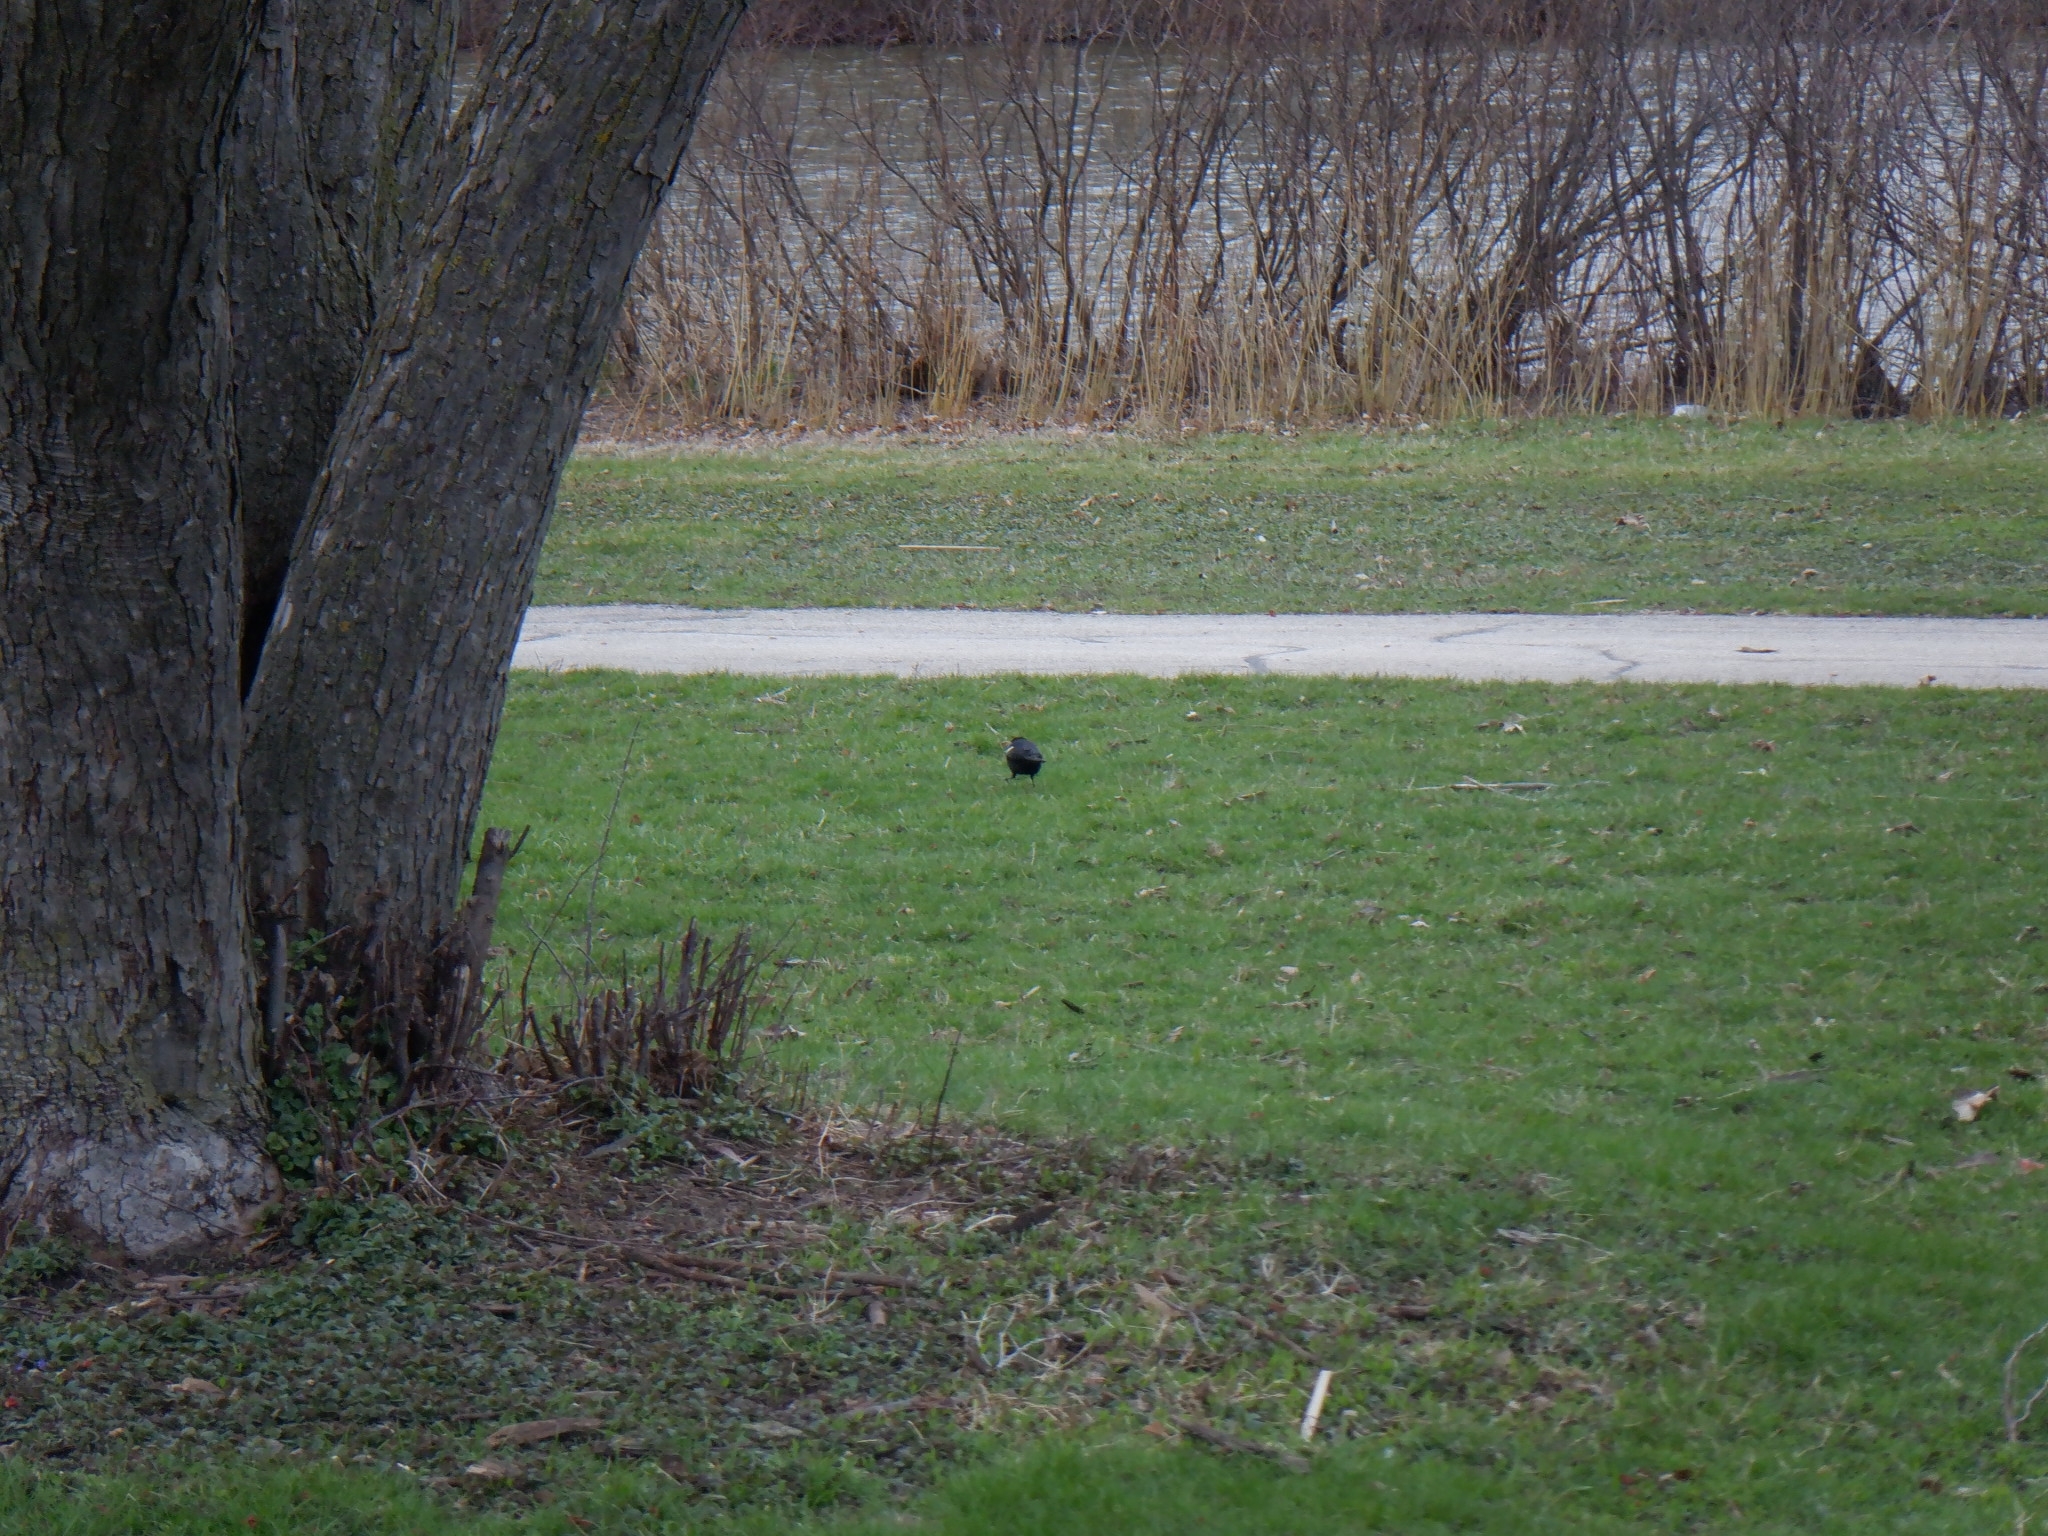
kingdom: Animalia
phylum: Chordata
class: Aves
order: Passeriformes
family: Icteridae
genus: Agelaius
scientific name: Agelaius phoeniceus
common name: Red-winged blackbird
